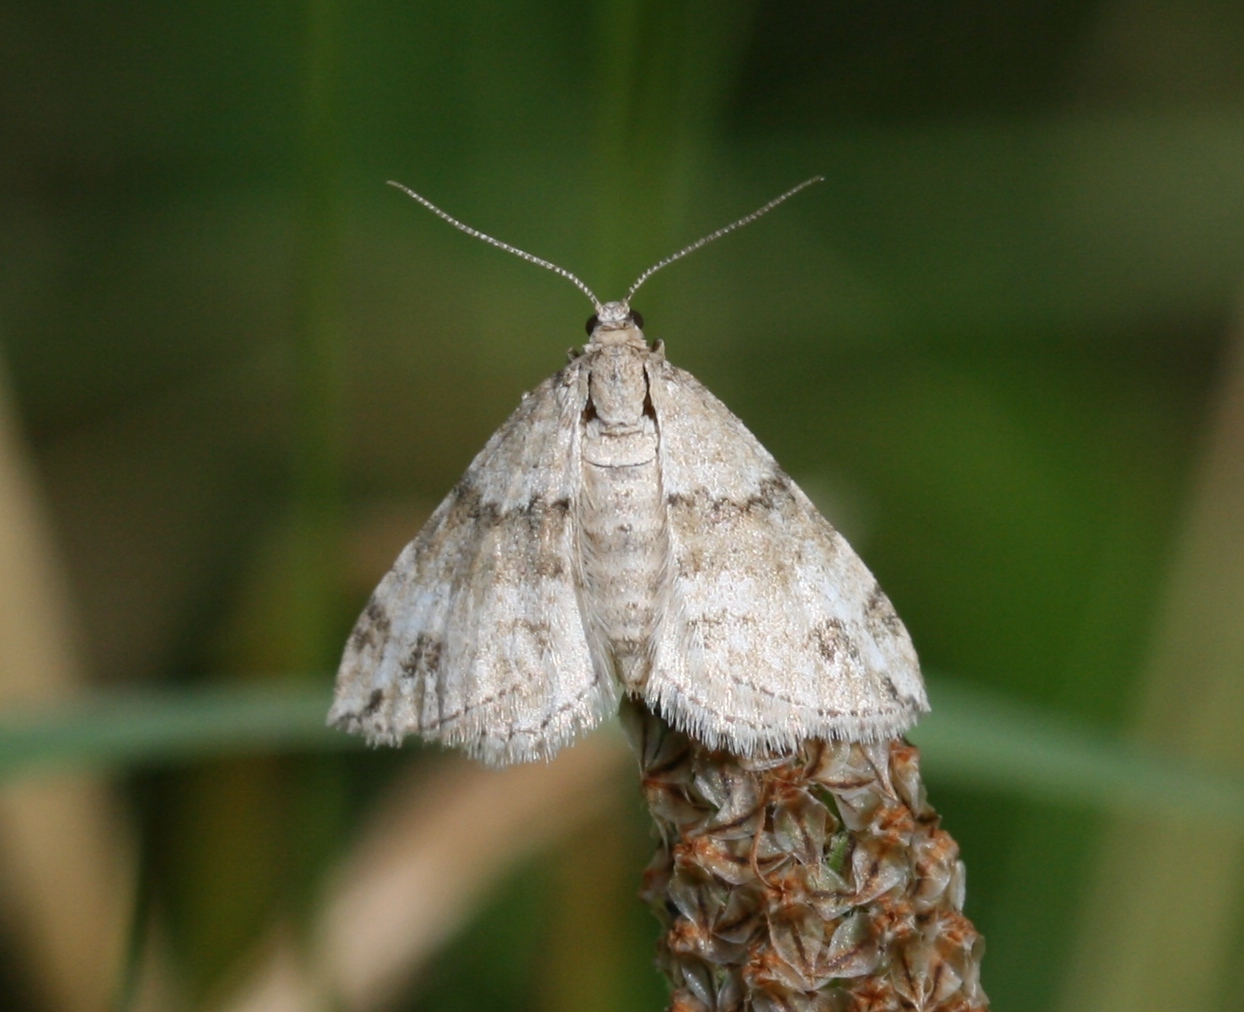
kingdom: Animalia
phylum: Arthropoda
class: Insecta
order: Lepidoptera
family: Geometridae
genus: Perizoma
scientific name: Perizoma didymata
